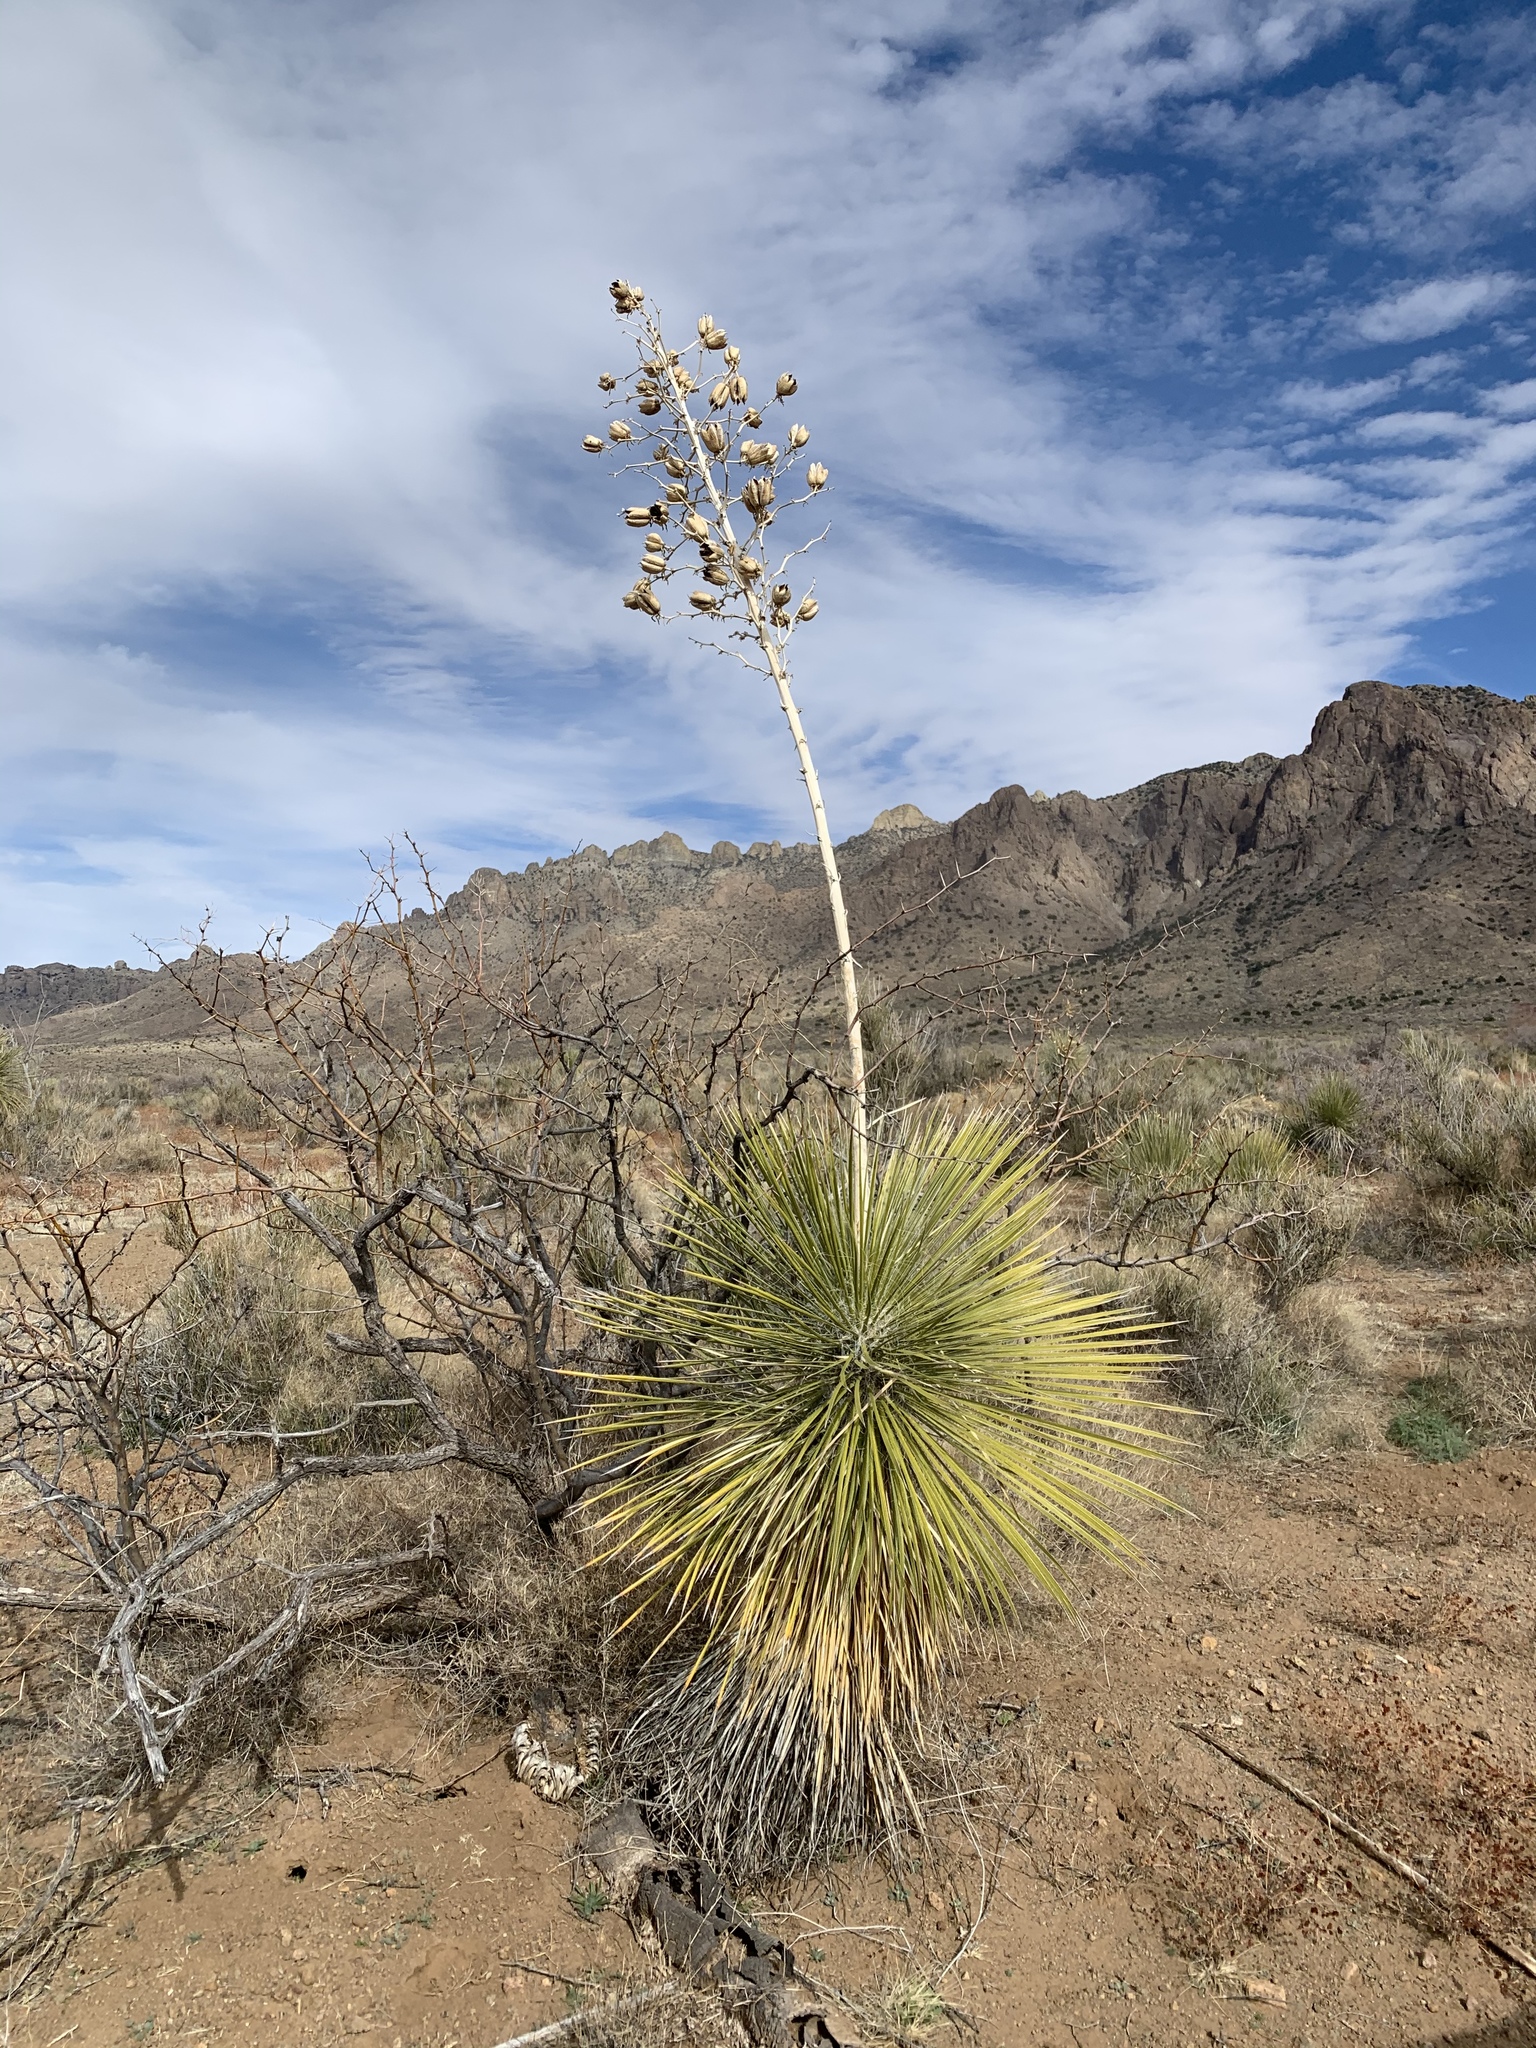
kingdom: Plantae
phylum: Tracheophyta
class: Liliopsida
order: Asparagales
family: Asparagaceae
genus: Yucca
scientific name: Yucca elata
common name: Palmella
